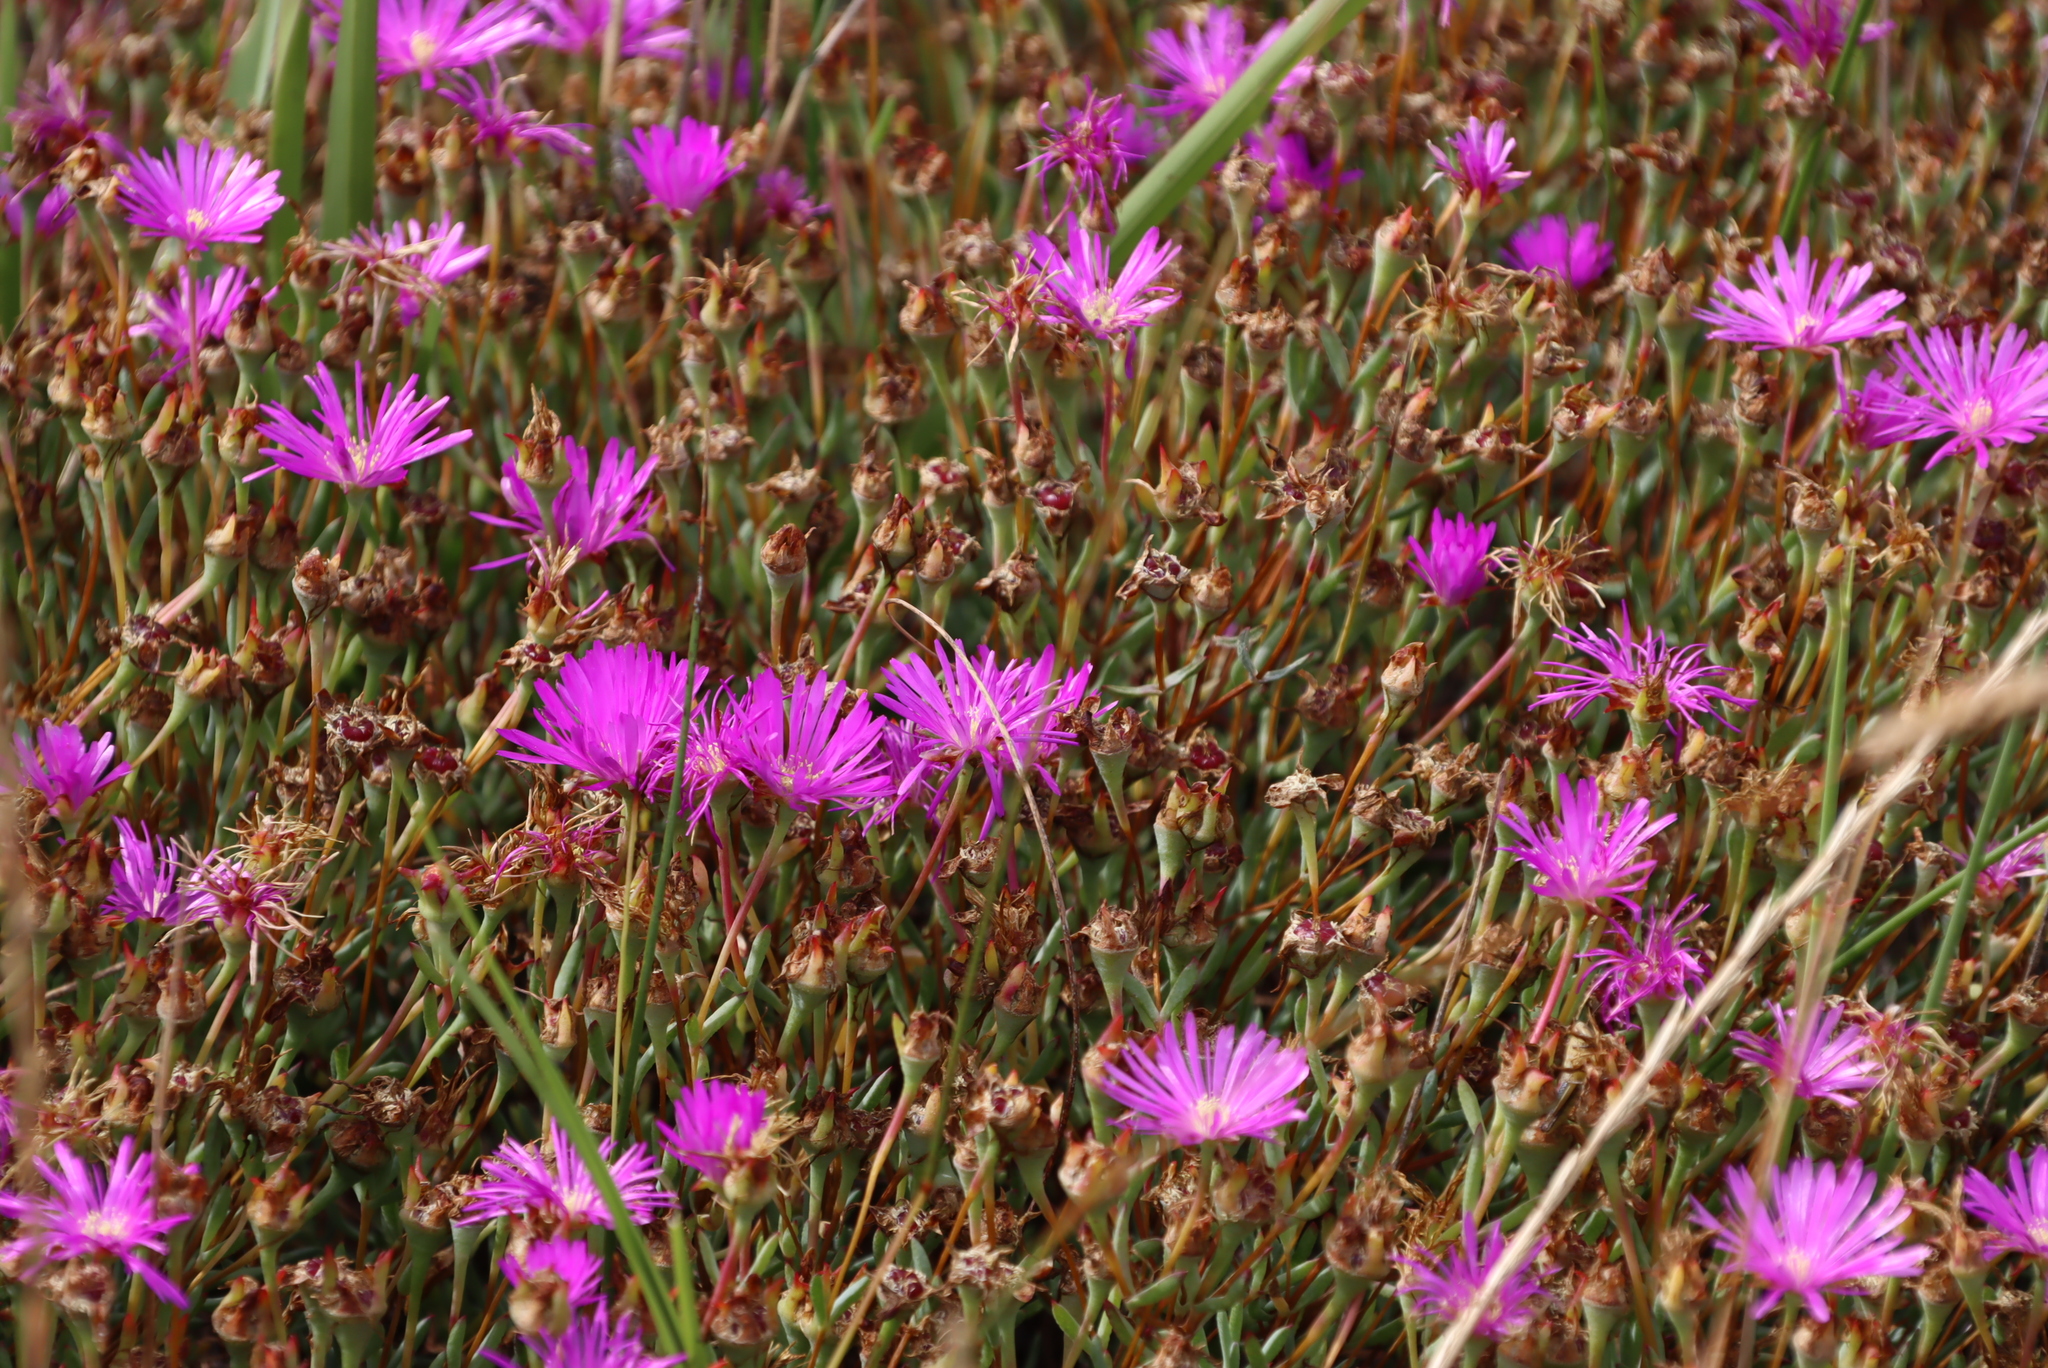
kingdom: Plantae
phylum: Tracheophyta
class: Magnoliopsida
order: Caryophyllales
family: Aizoaceae
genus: Lampranthus
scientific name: Lampranthus emarginatus
